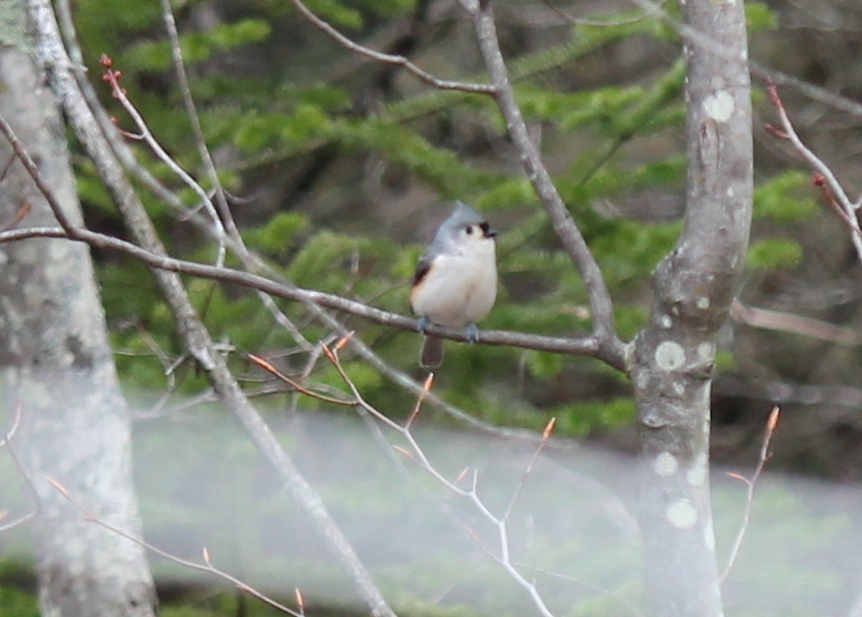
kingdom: Animalia
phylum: Chordata
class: Aves
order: Passeriformes
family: Paridae
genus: Baeolophus
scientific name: Baeolophus bicolor
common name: Tufted titmouse
